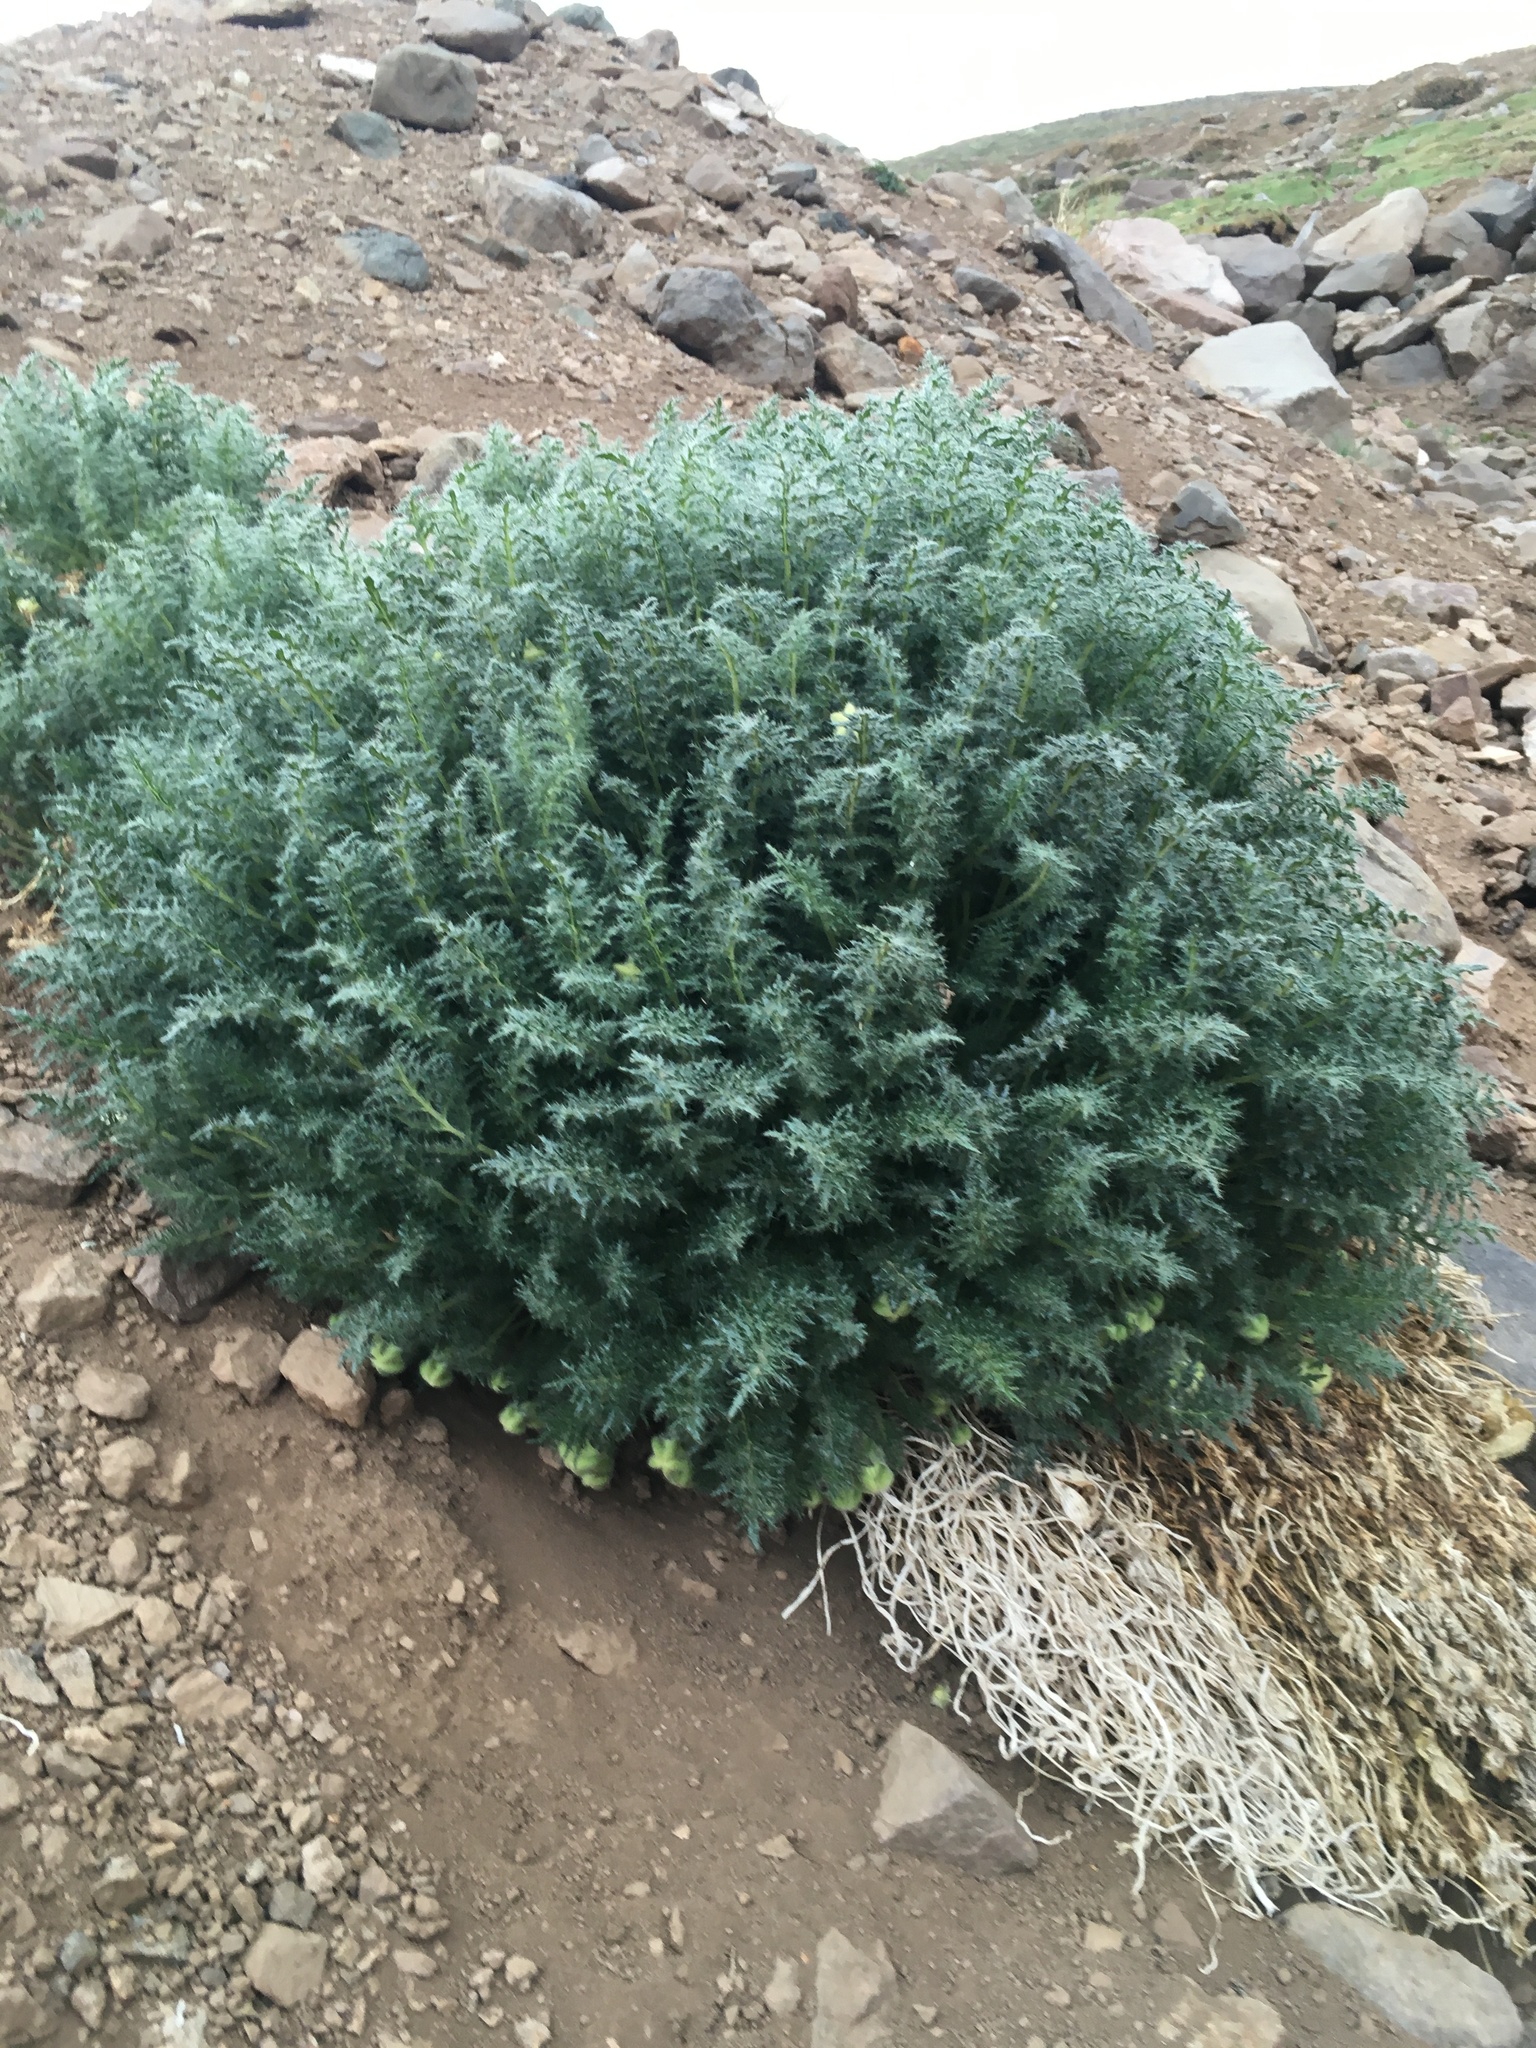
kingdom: Plantae
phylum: Tracheophyta
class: Magnoliopsida
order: Cornales
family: Loasaceae
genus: Caiophora
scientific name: Caiophora coronata
